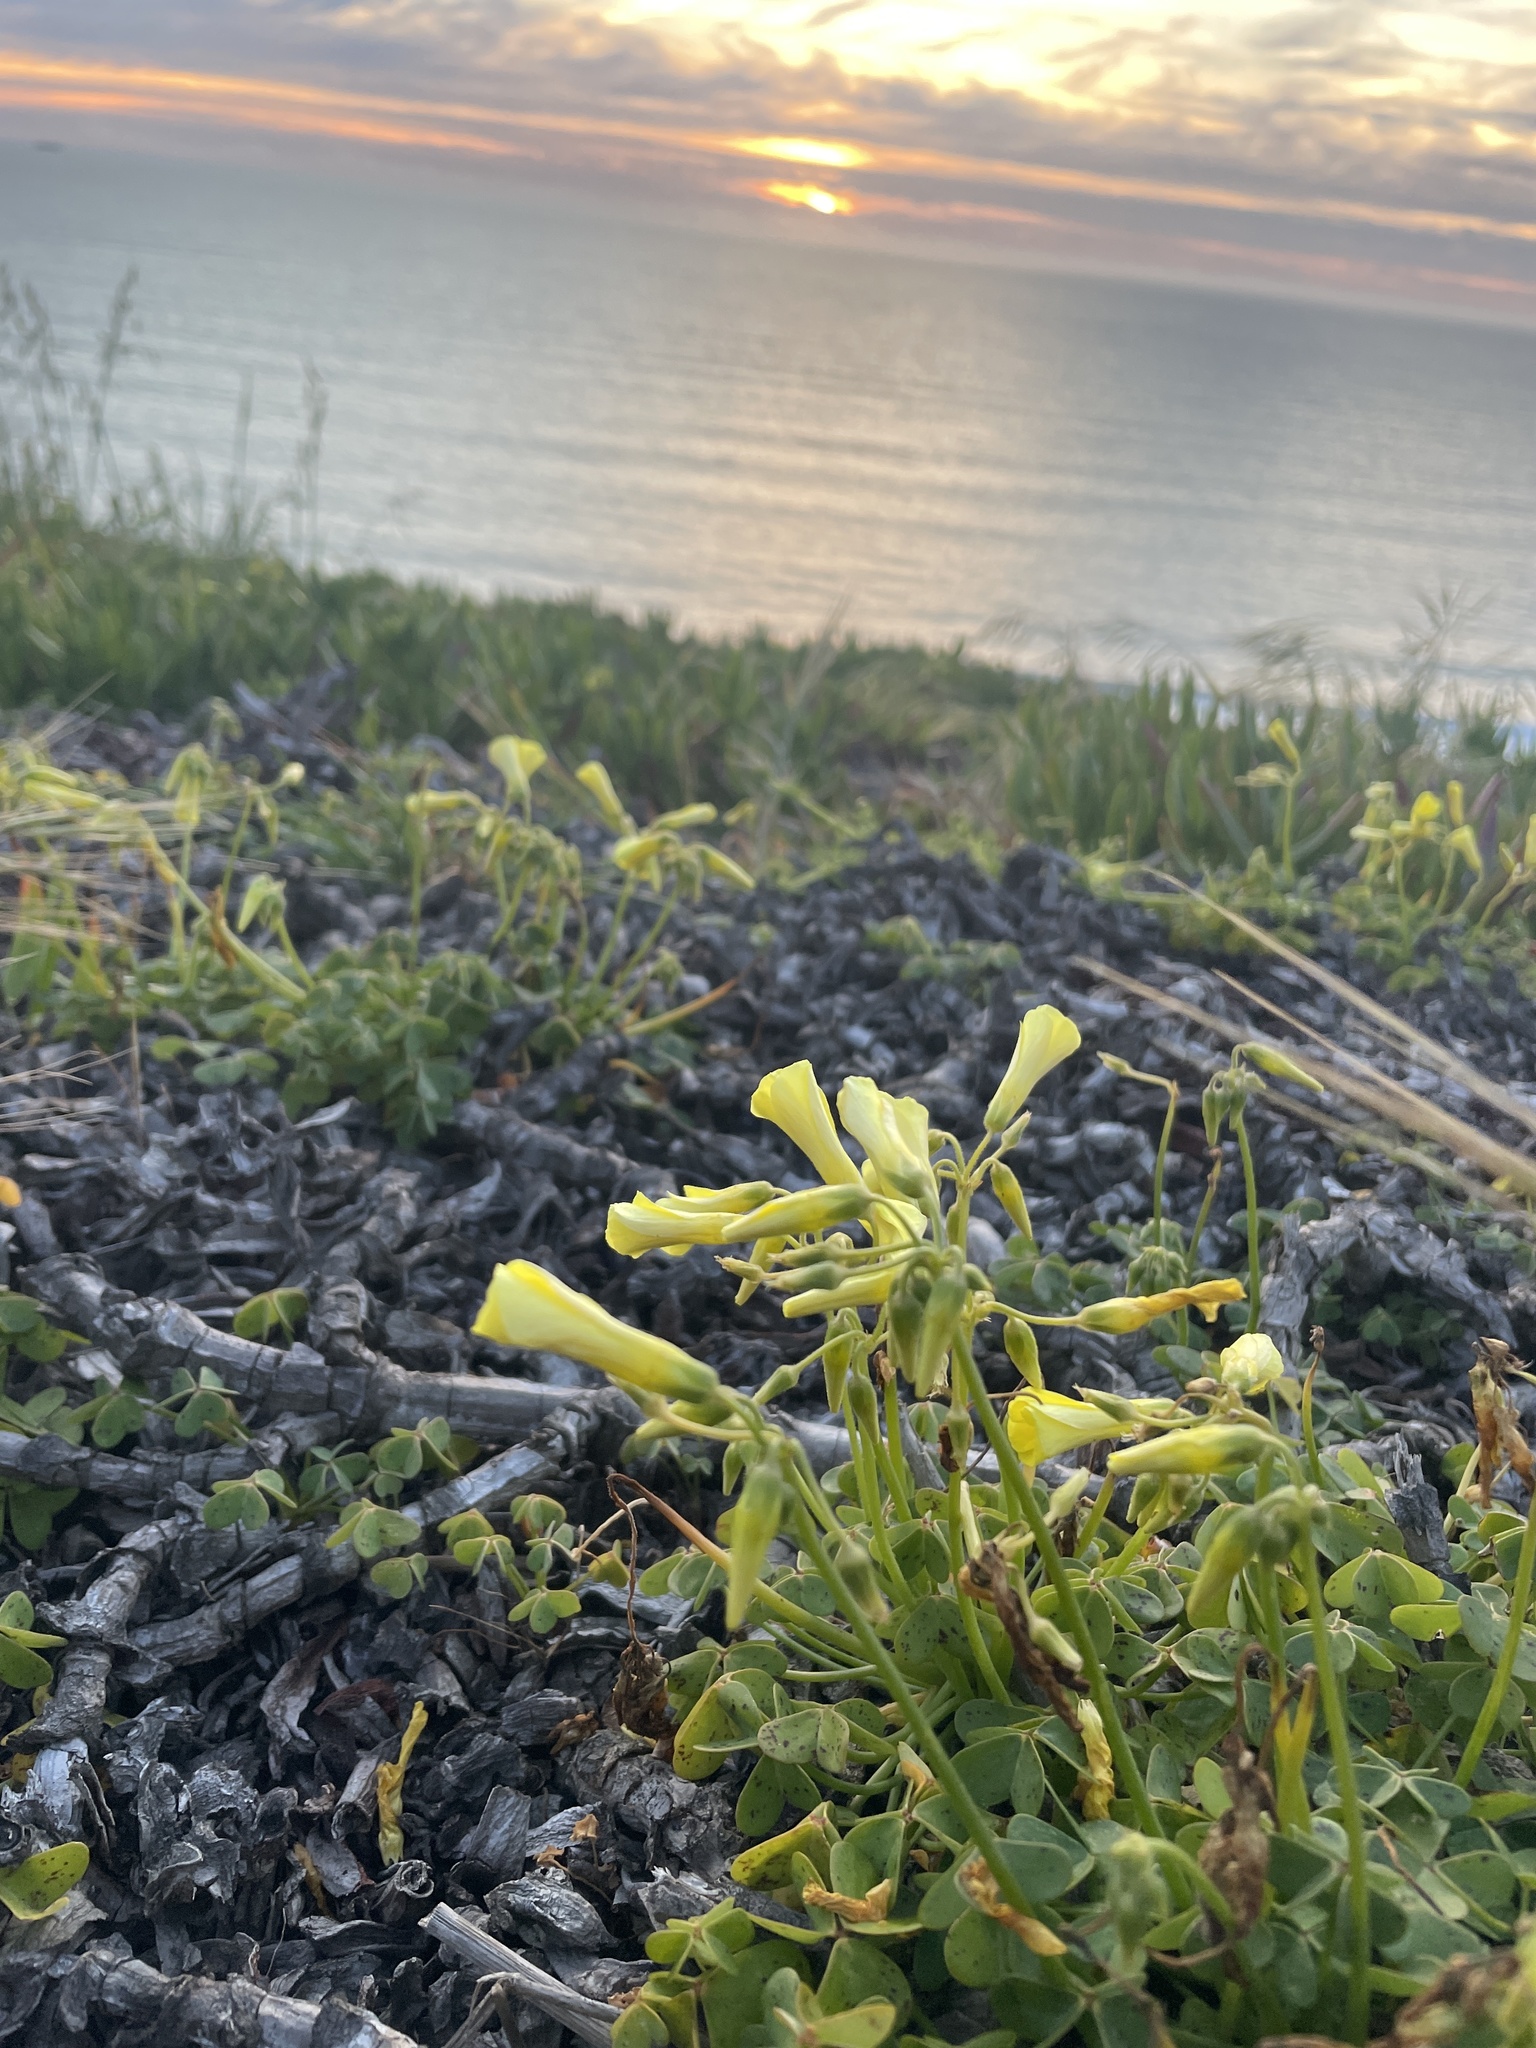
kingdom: Plantae
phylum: Tracheophyta
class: Magnoliopsida
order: Oxalidales
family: Oxalidaceae
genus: Oxalis
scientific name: Oxalis pes-caprae
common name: Bermuda-buttercup
